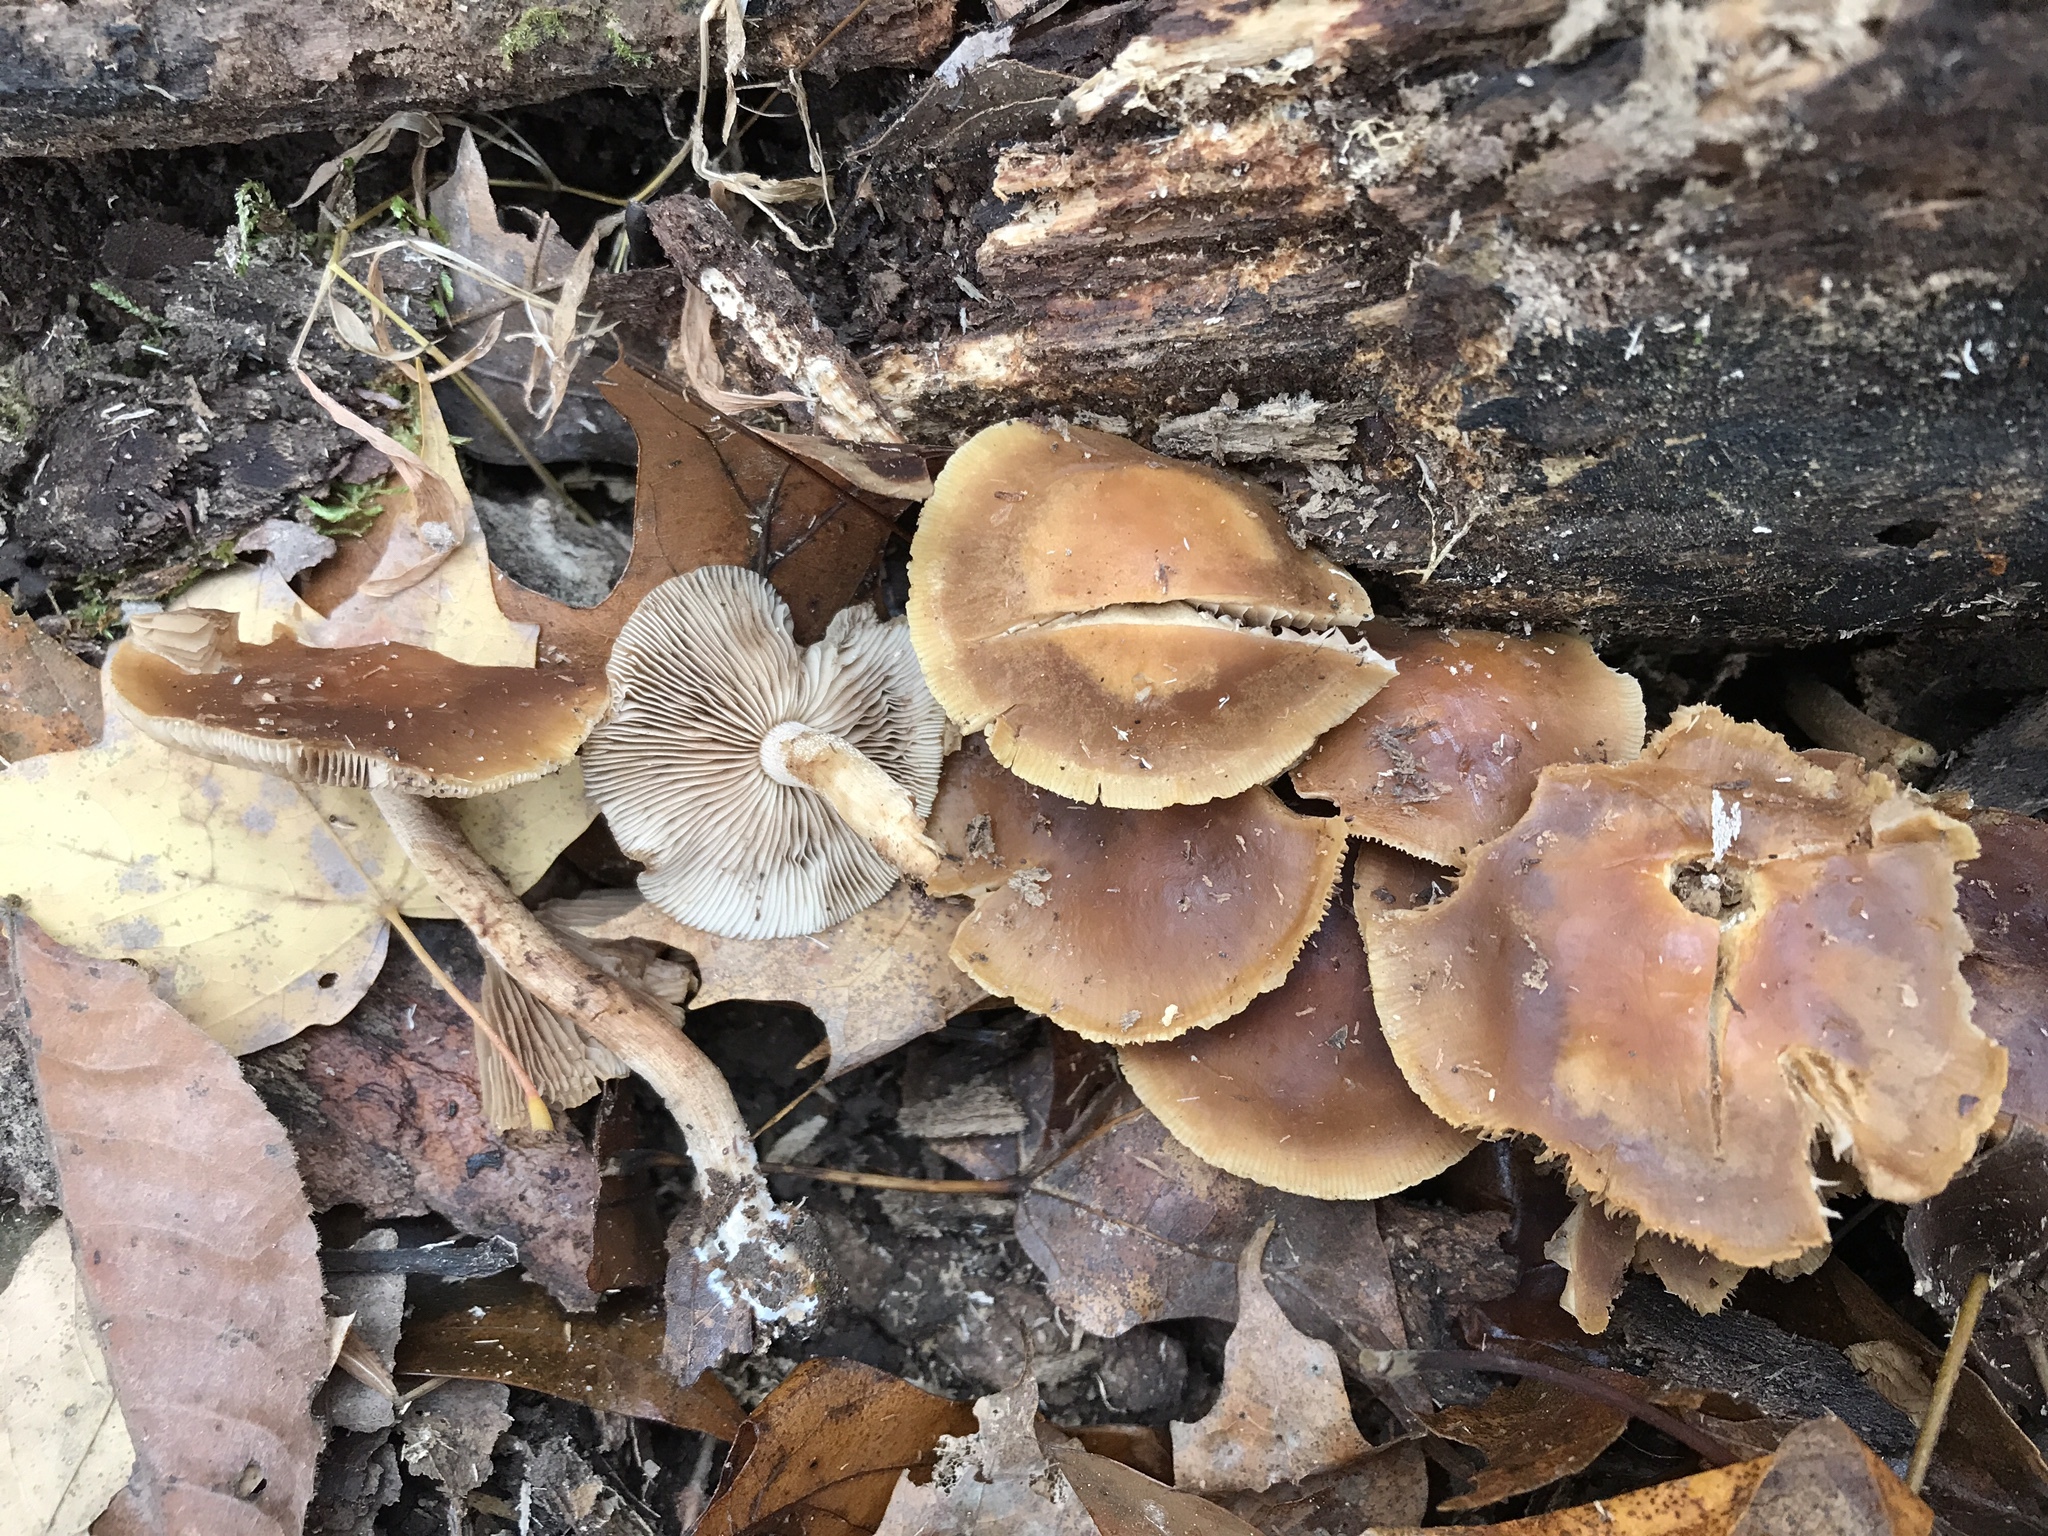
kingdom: Fungi
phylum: Basidiomycota
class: Agaricomycetes
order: Agaricales
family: Strophariaceae
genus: Agrocybe
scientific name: Agrocybe firma
